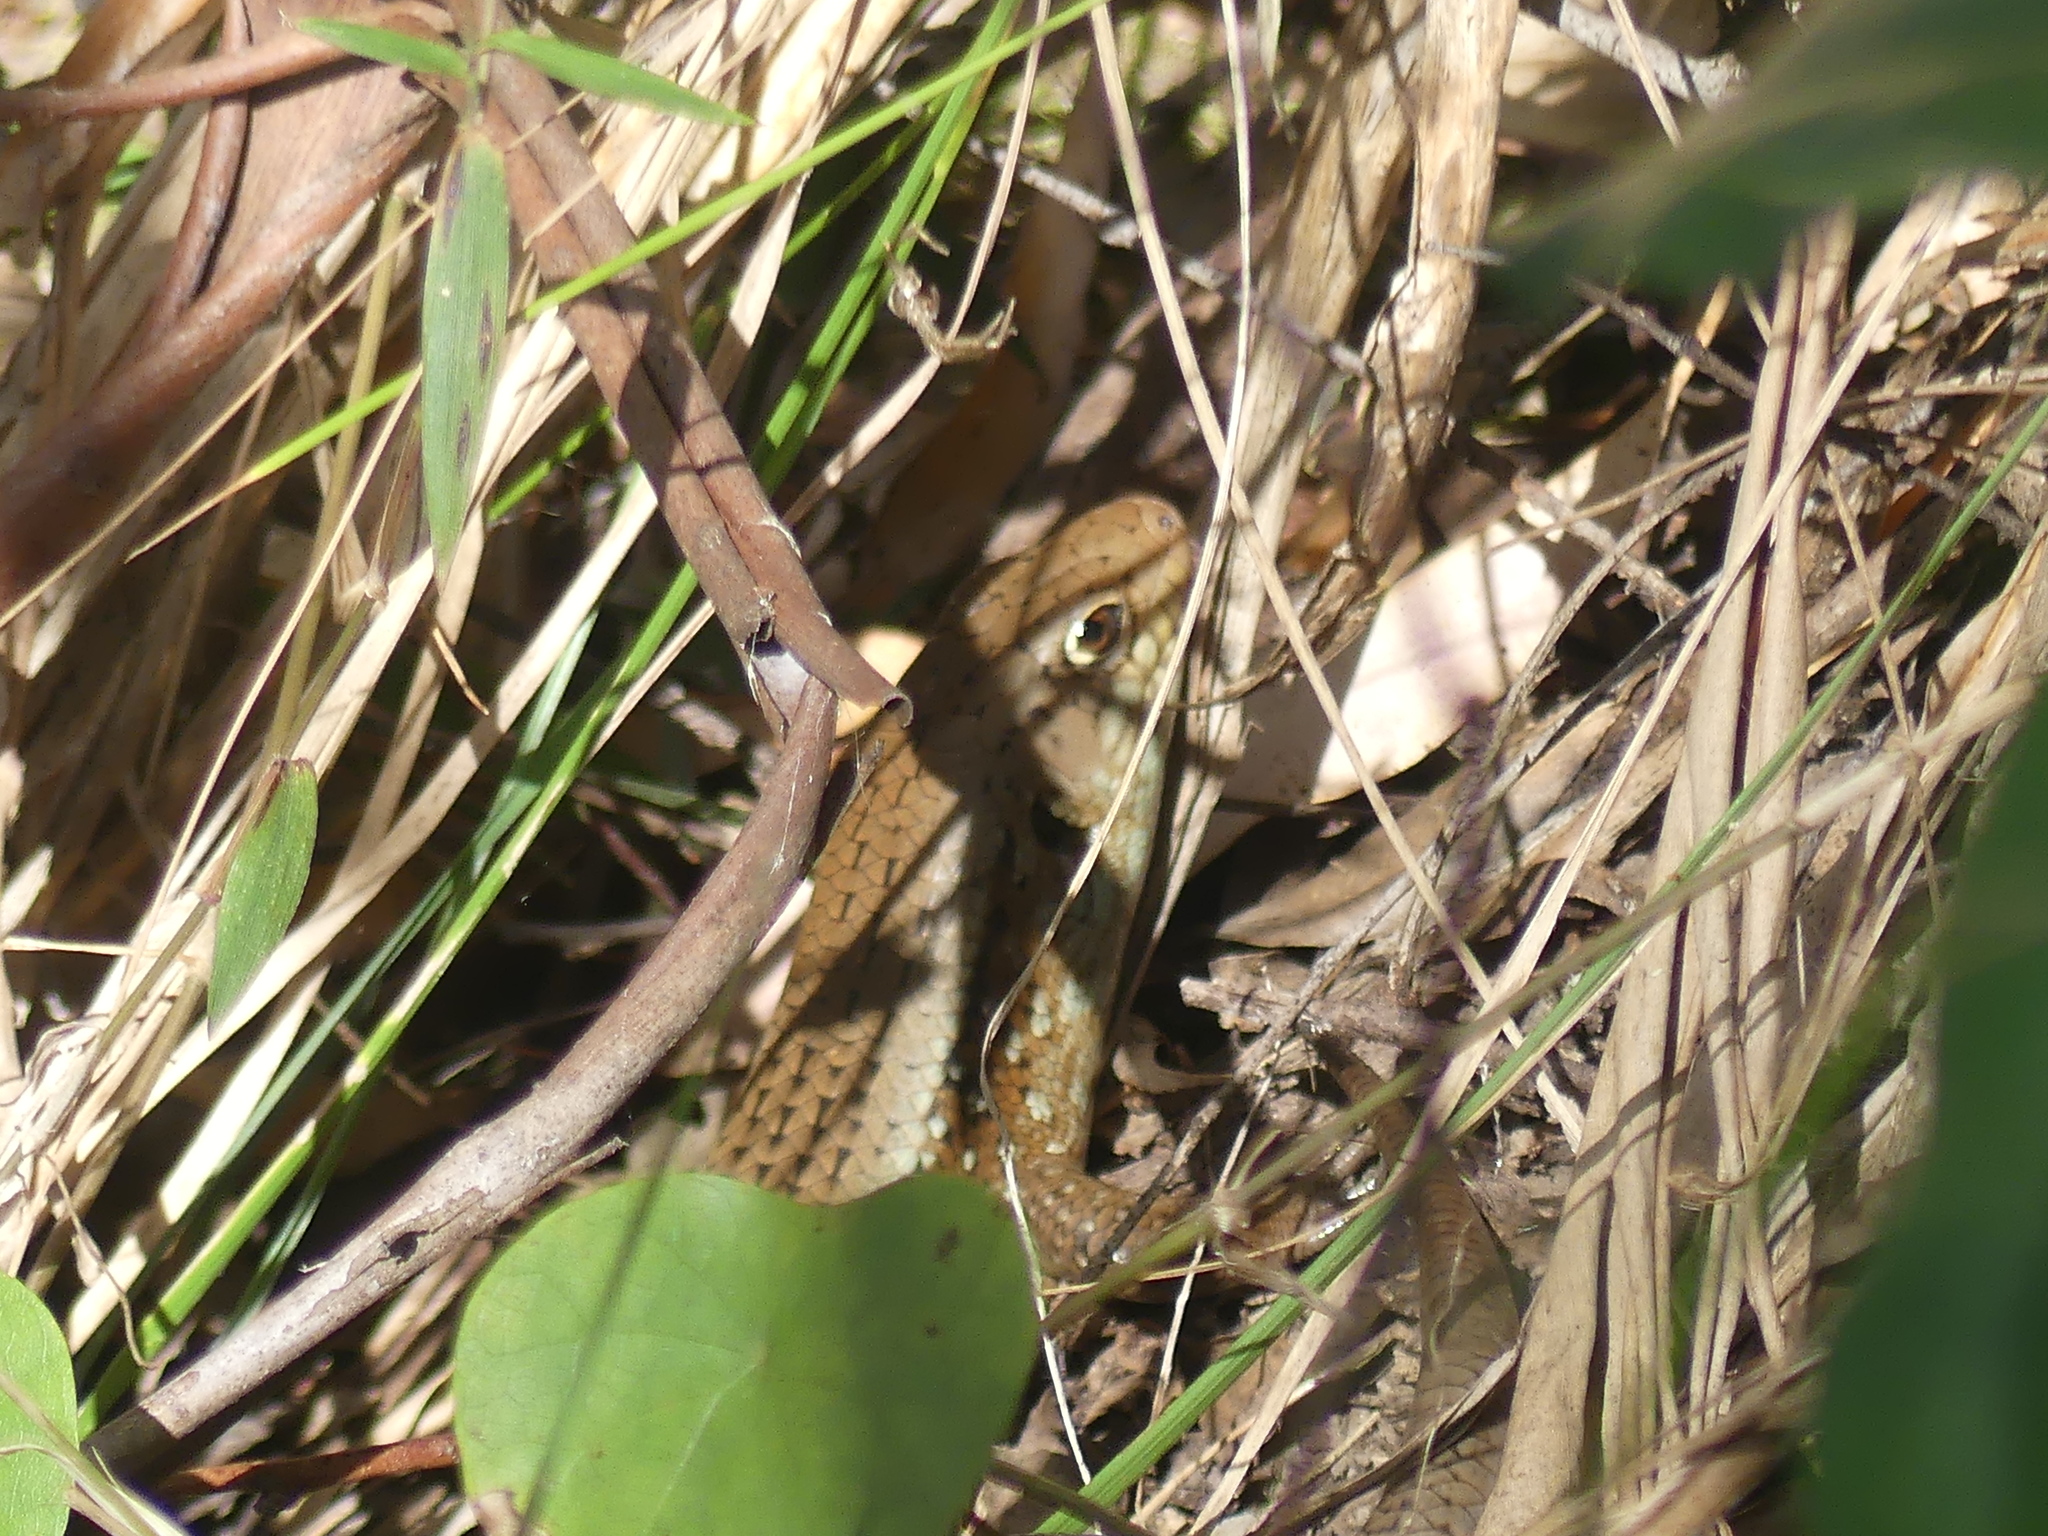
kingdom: Animalia
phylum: Chordata
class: Squamata
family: Scincidae
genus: Bellatorias
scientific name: Bellatorias frerei
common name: Major skink
